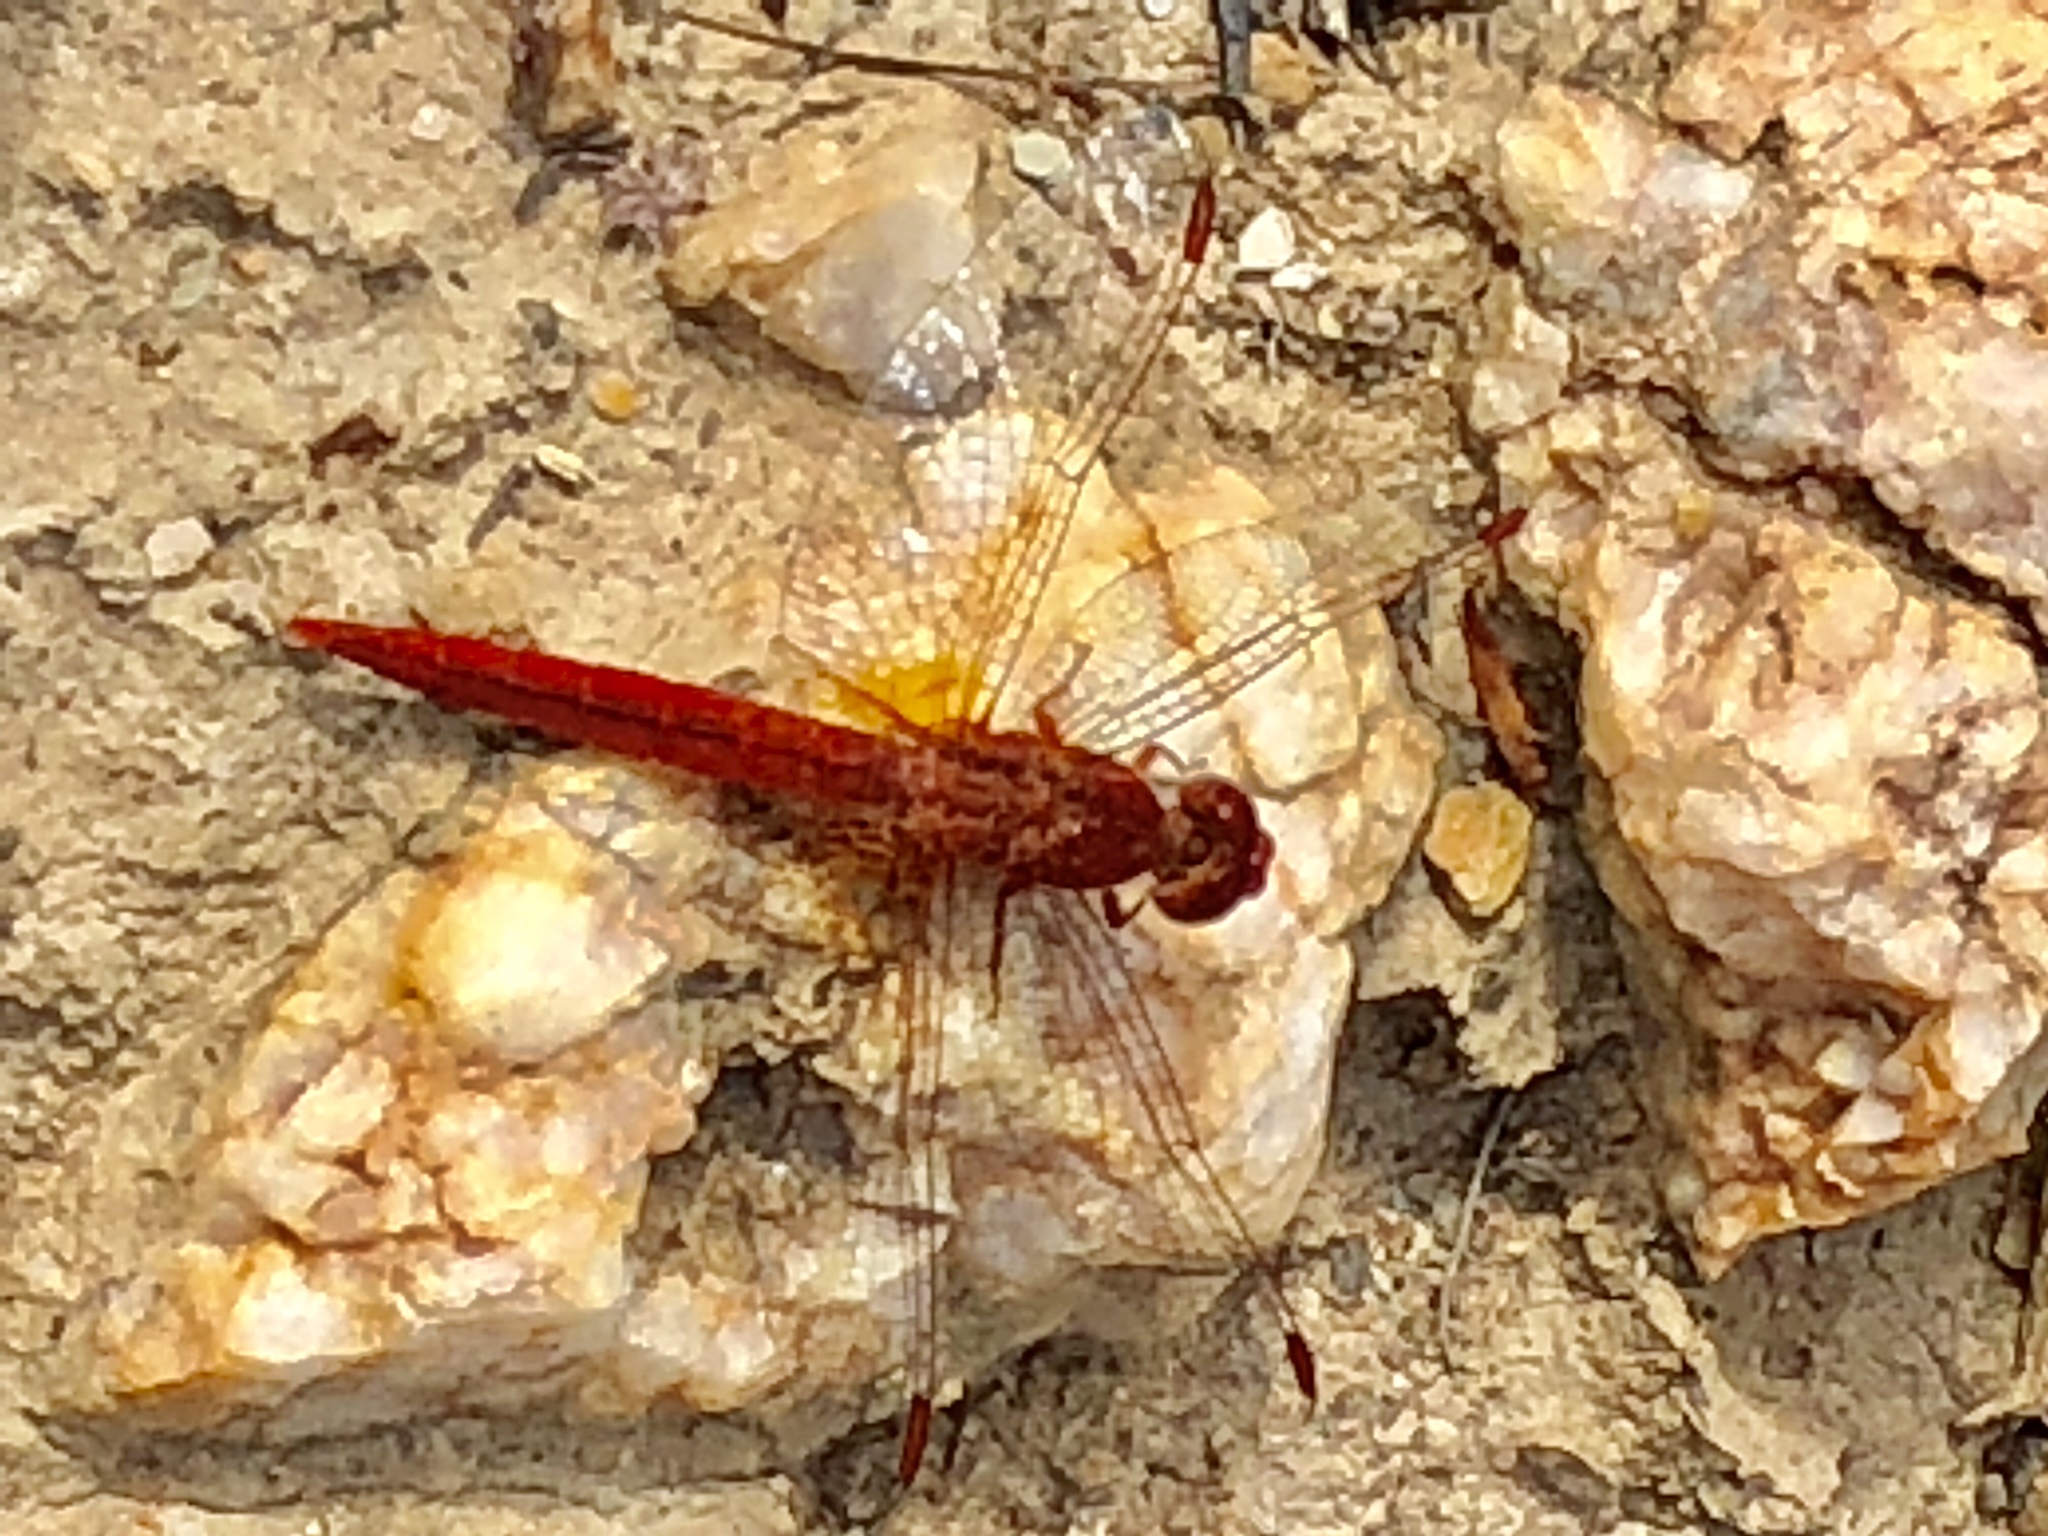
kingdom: Animalia
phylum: Arthropoda
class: Insecta
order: Odonata
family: Libellulidae
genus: Crocothemis
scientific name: Crocothemis sanguinolenta
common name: Little scarlet
